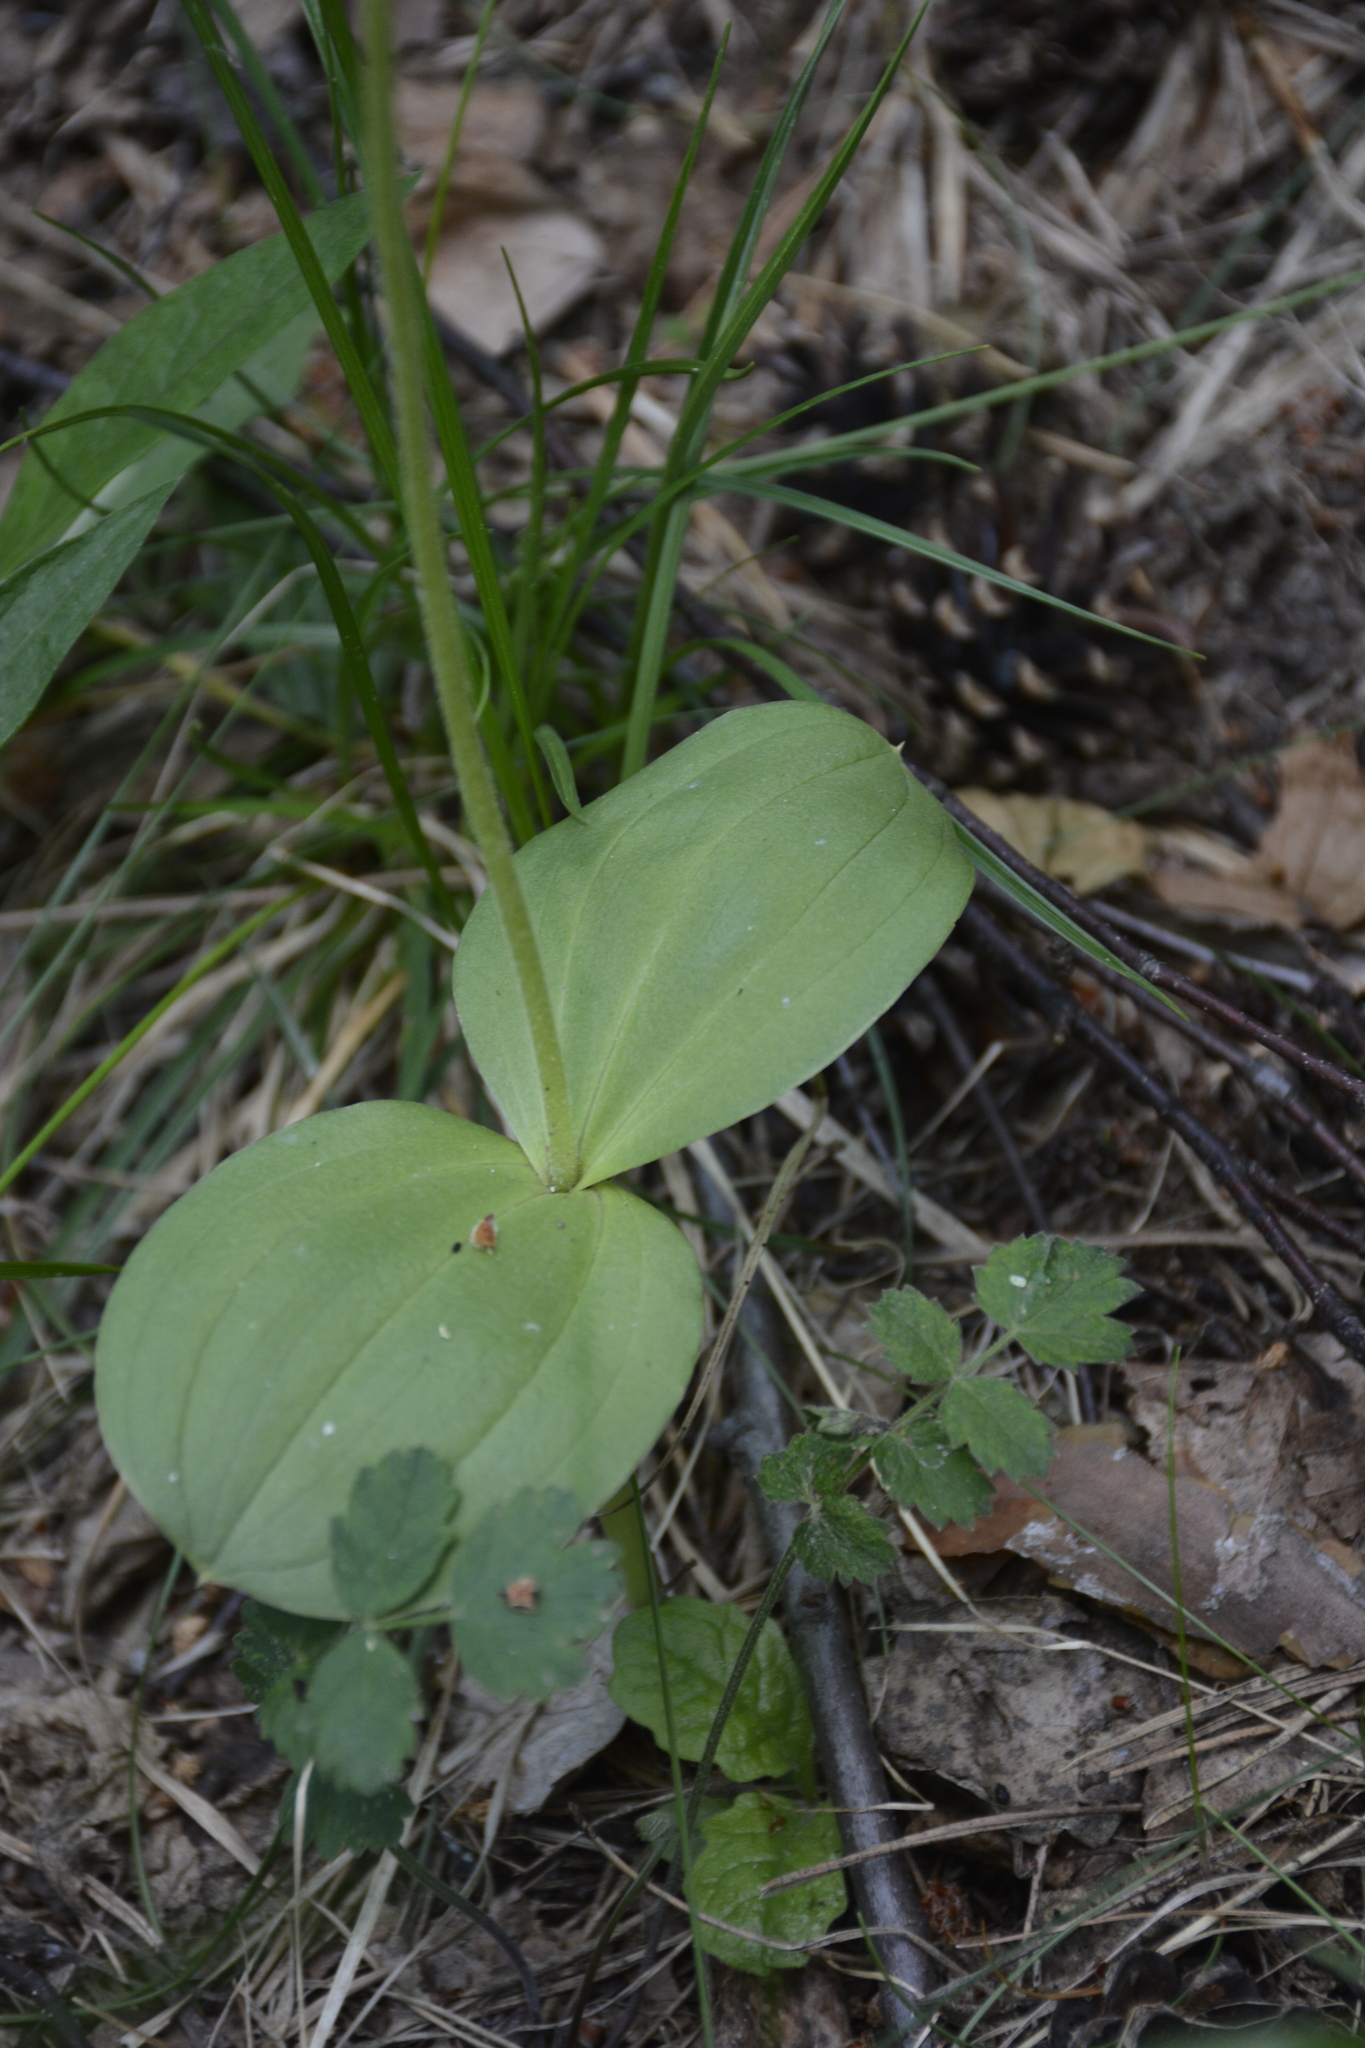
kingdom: Plantae
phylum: Tracheophyta
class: Liliopsida
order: Asparagales
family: Orchidaceae
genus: Neottia
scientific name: Neottia ovata
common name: Common twayblade
